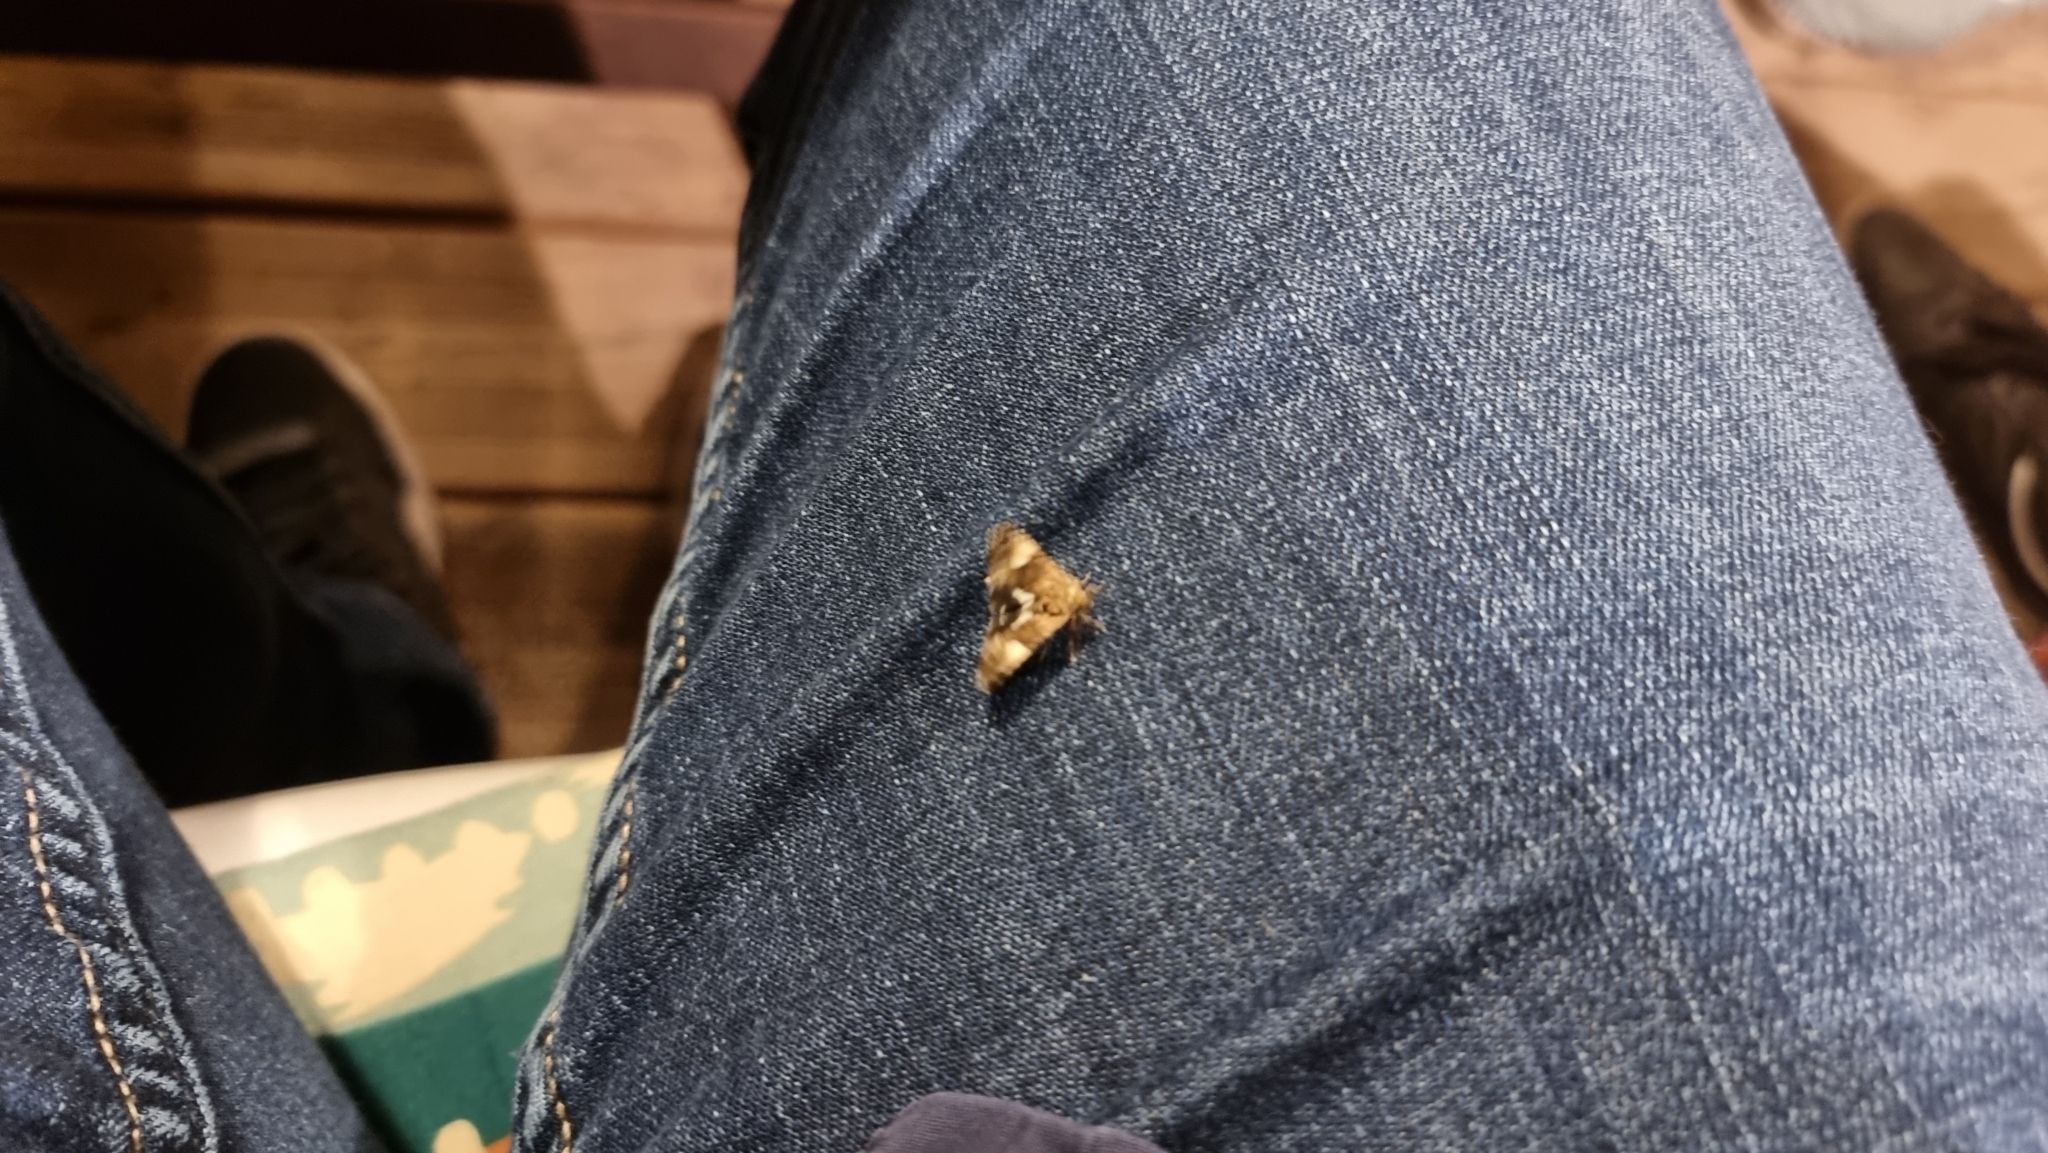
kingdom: Animalia
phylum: Arthropoda
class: Insecta
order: Lepidoptera
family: Erebidae
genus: Tyta
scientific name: Tyta luctuosa
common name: Four-spotted
